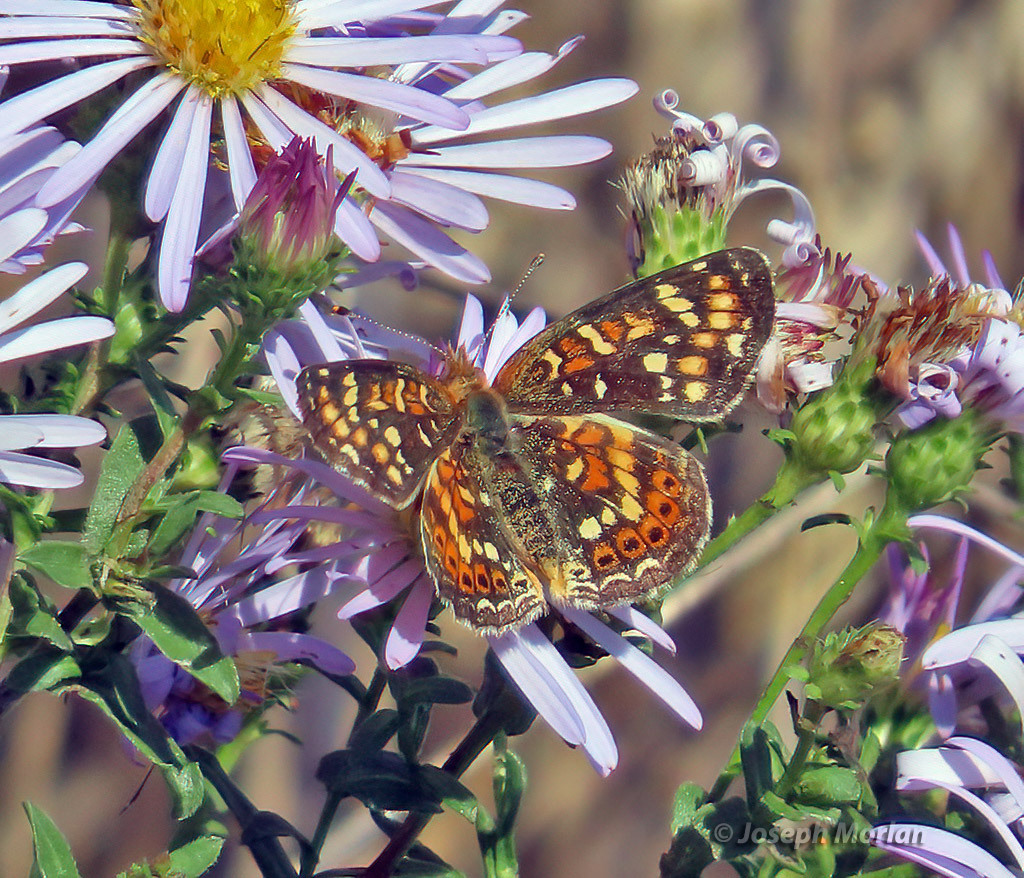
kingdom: Animalia
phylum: Arthropoda
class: Insecta
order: Lepidoptera
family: Nymphalidae
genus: Phyciodes
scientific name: Phyciodes tharos
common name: Pearl crescent
